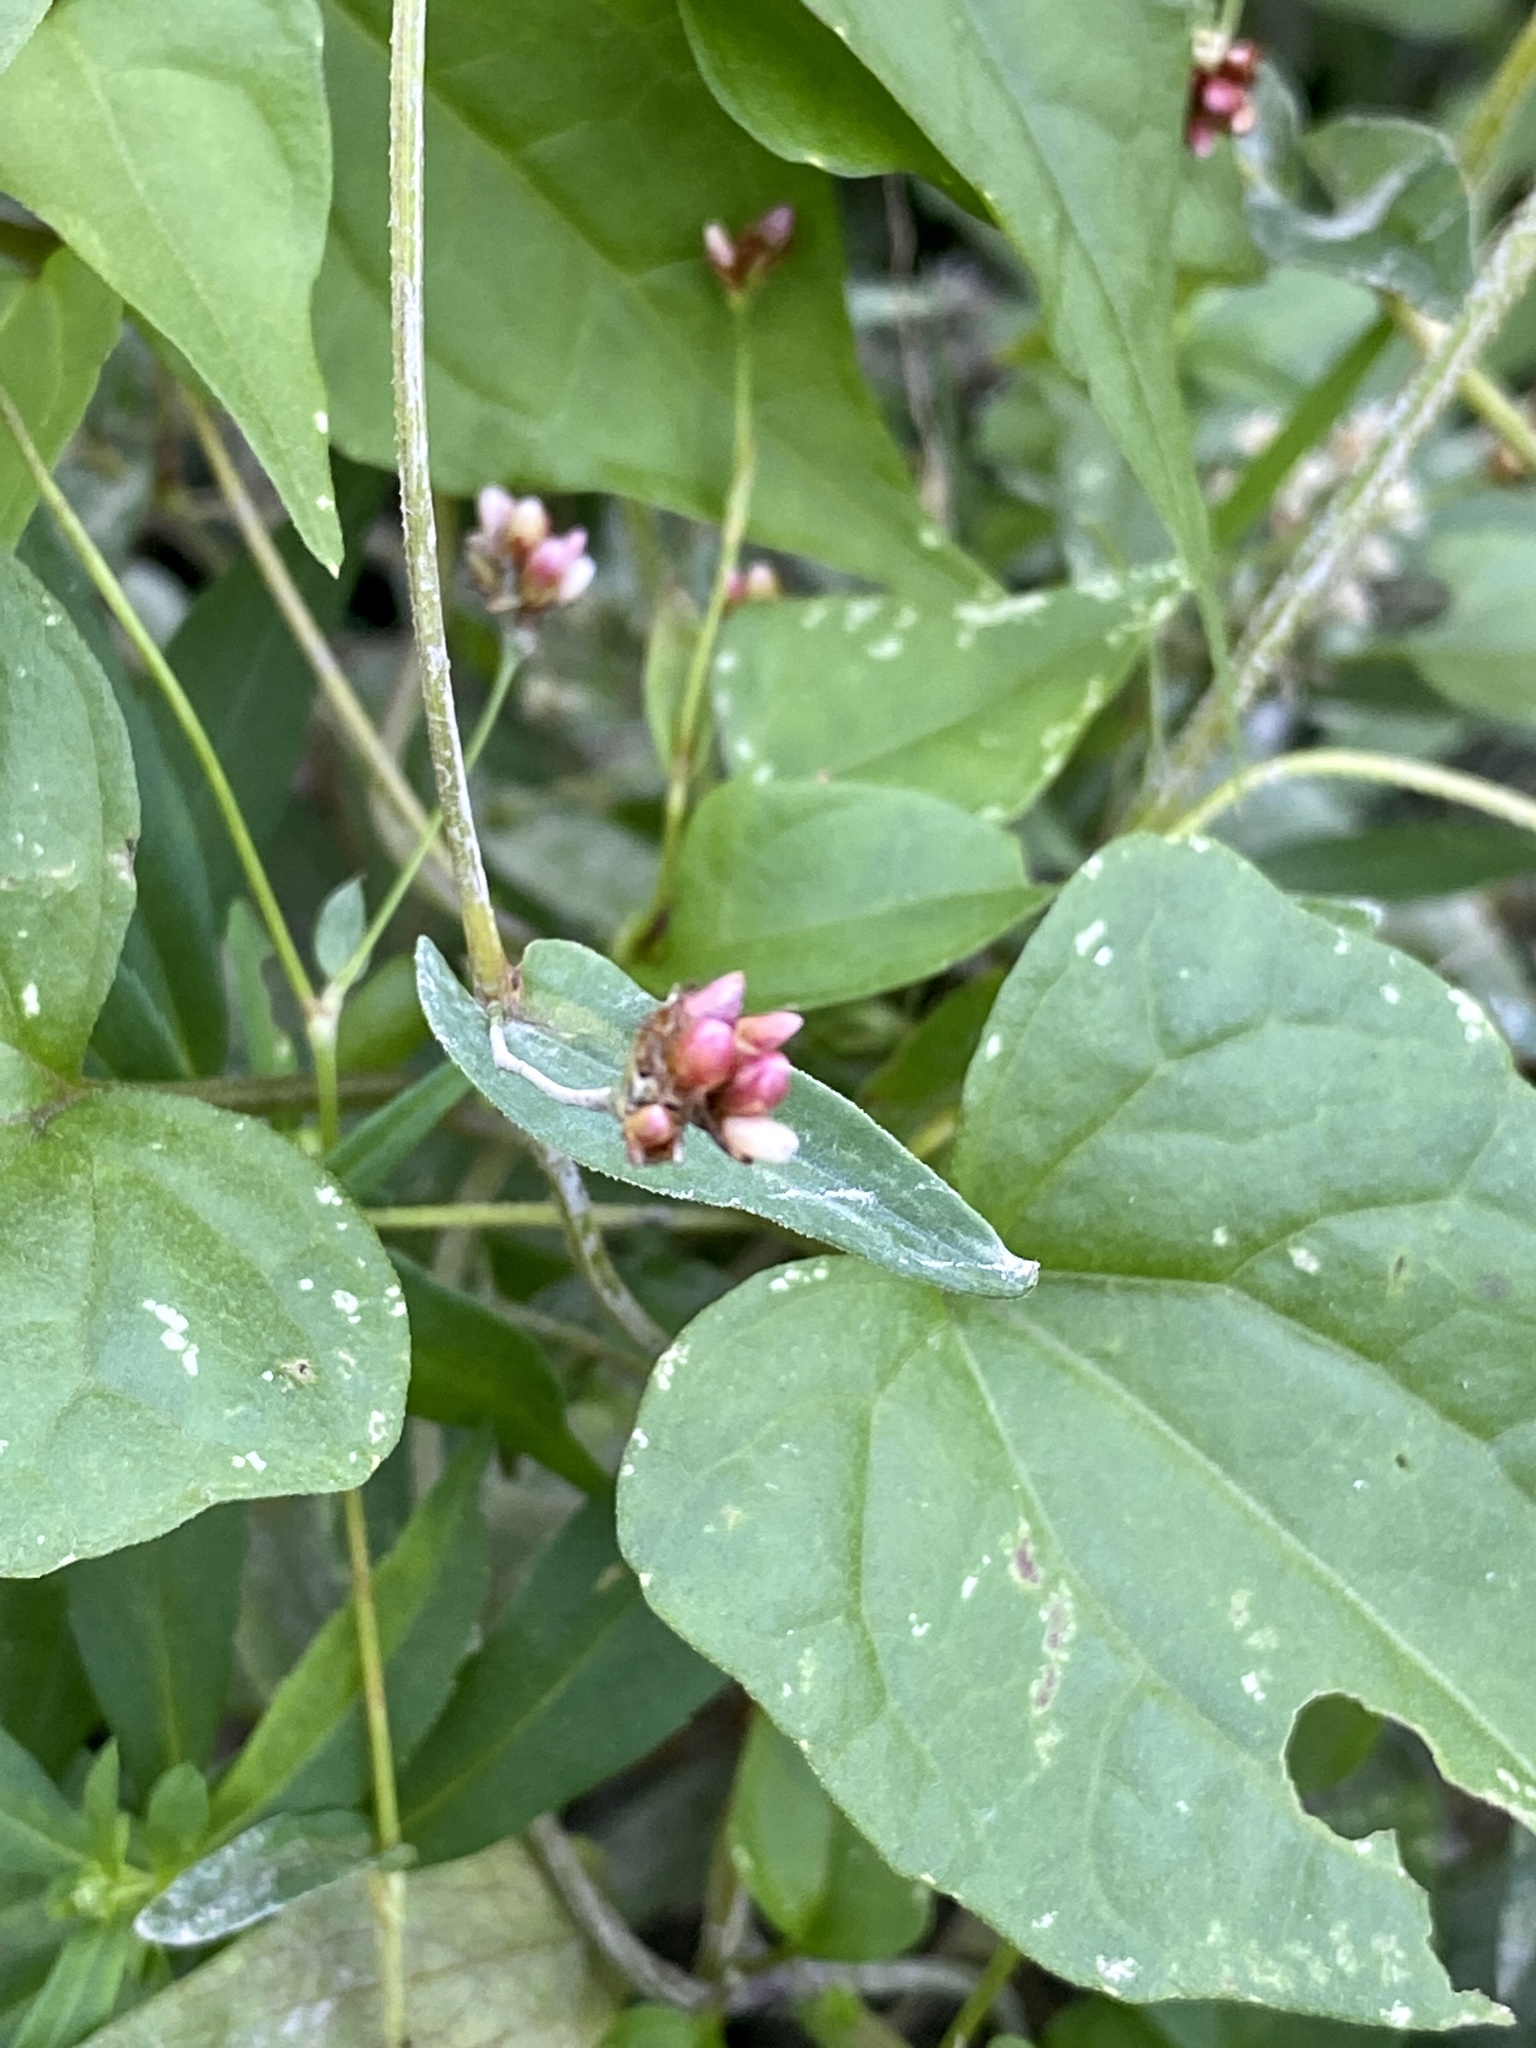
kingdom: Plantae
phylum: Tracheophyta
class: Magnoliopsida
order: Caryophyllales
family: Polygonaceae
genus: Persicaria
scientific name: Persicaria sagittata
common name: American tearthumb
